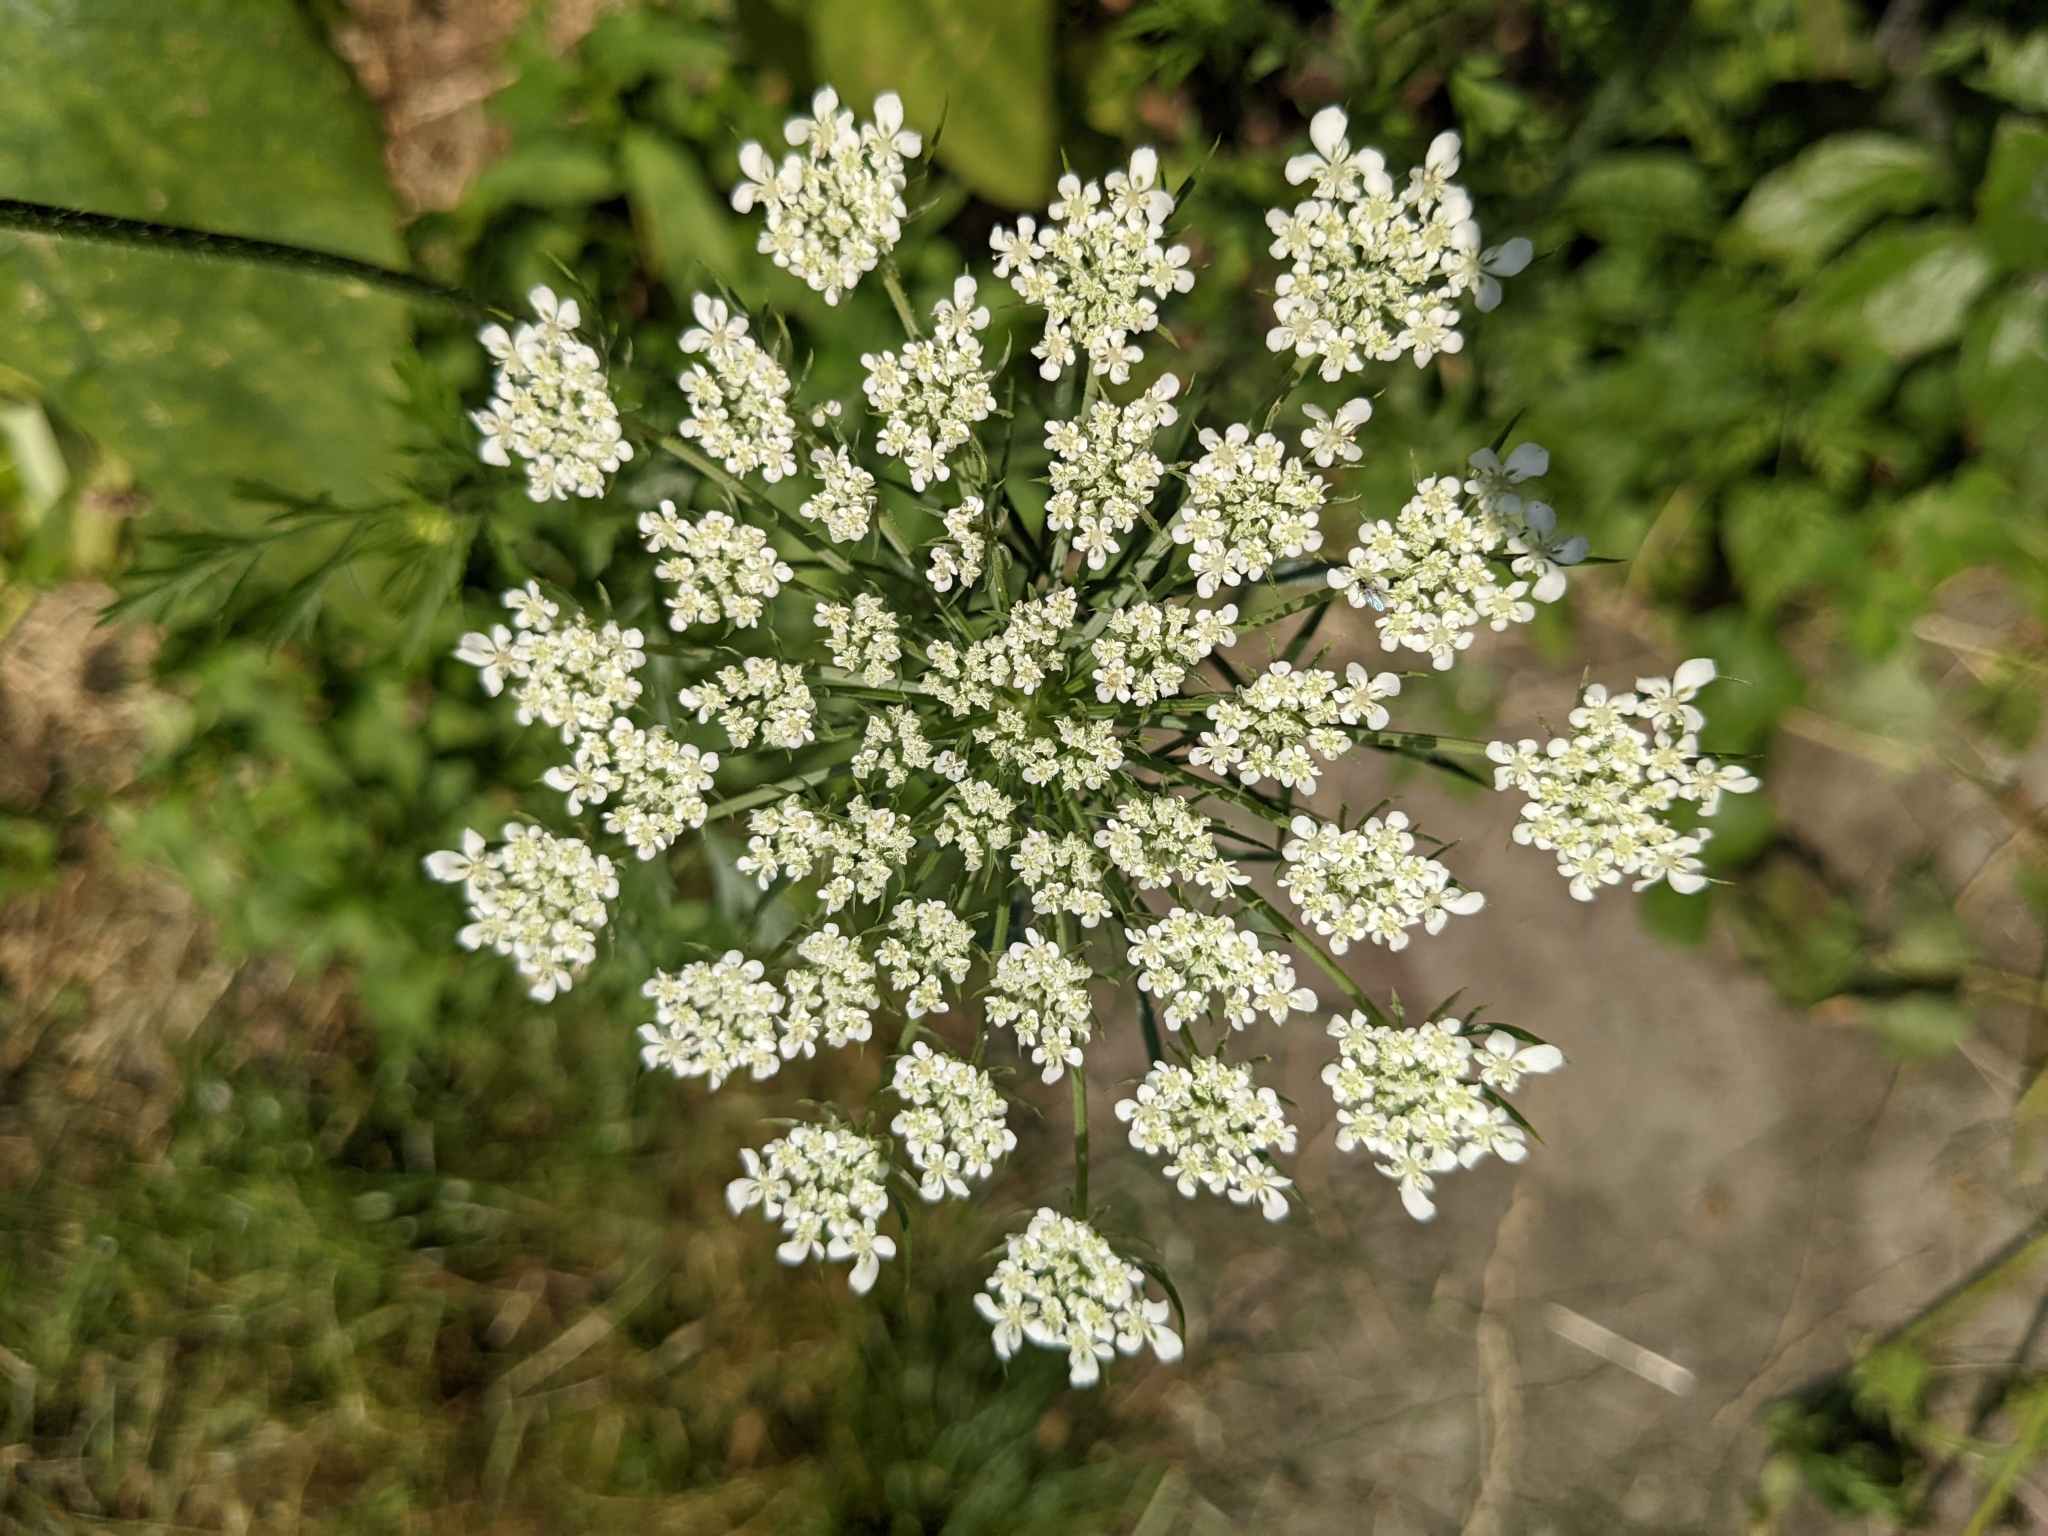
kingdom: Plantae
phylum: Tracheophyta
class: Magnoliopsida
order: Apiales
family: Apiaceae
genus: Daucus
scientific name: Daucus carota
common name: Wild carrot
